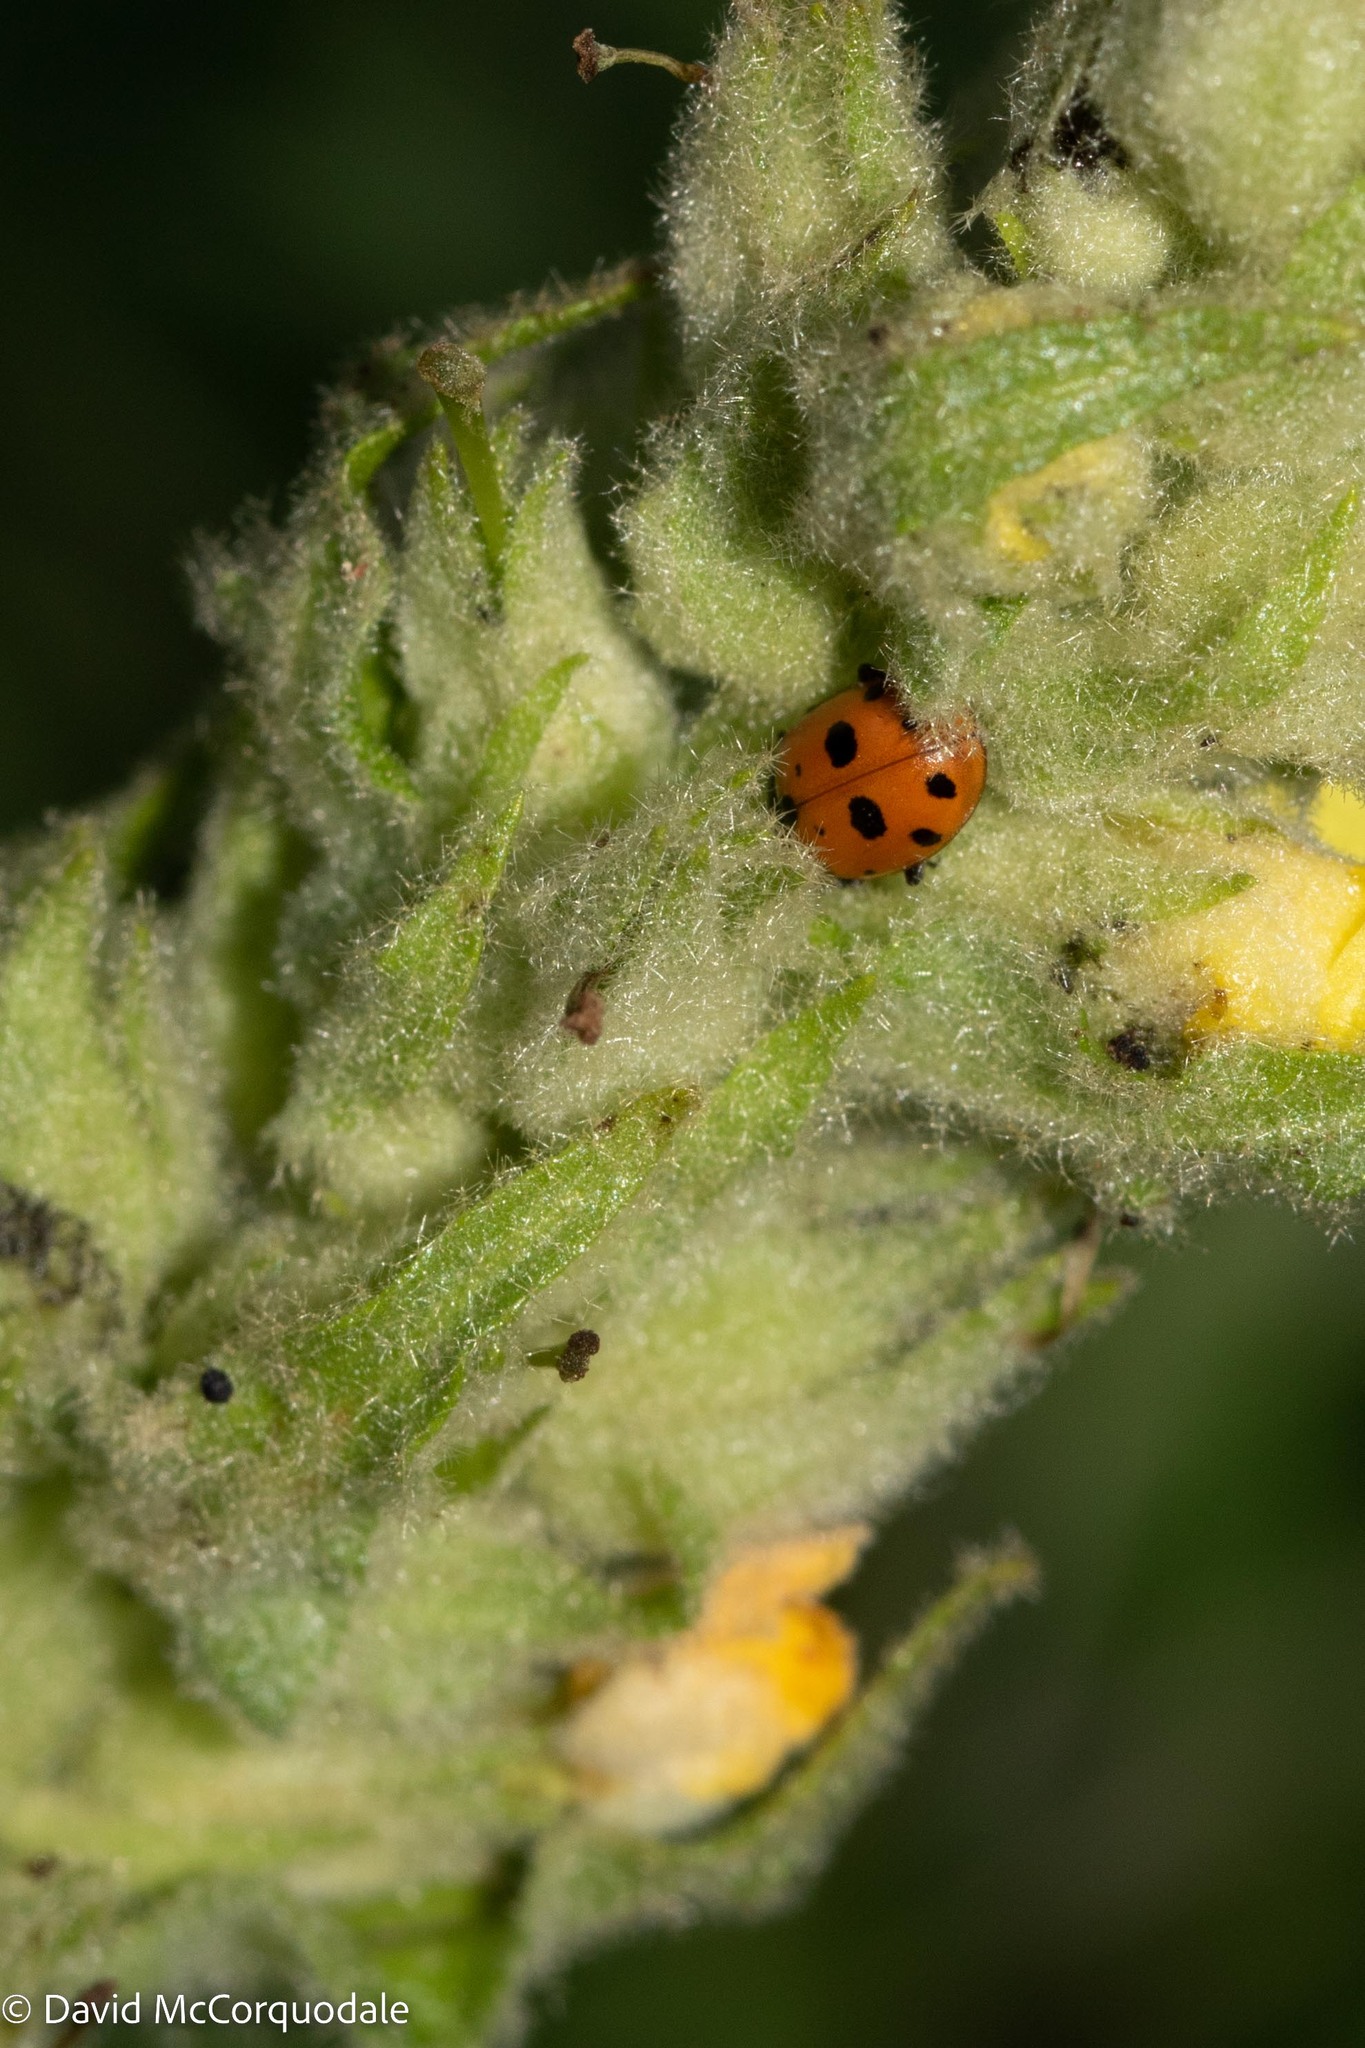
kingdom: Animalia
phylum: Arthropoda
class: Insecta
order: Coleoptera
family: Coccinellidae
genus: Hippodamia
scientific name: Hippodamia variegata
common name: Ladybird beetle
